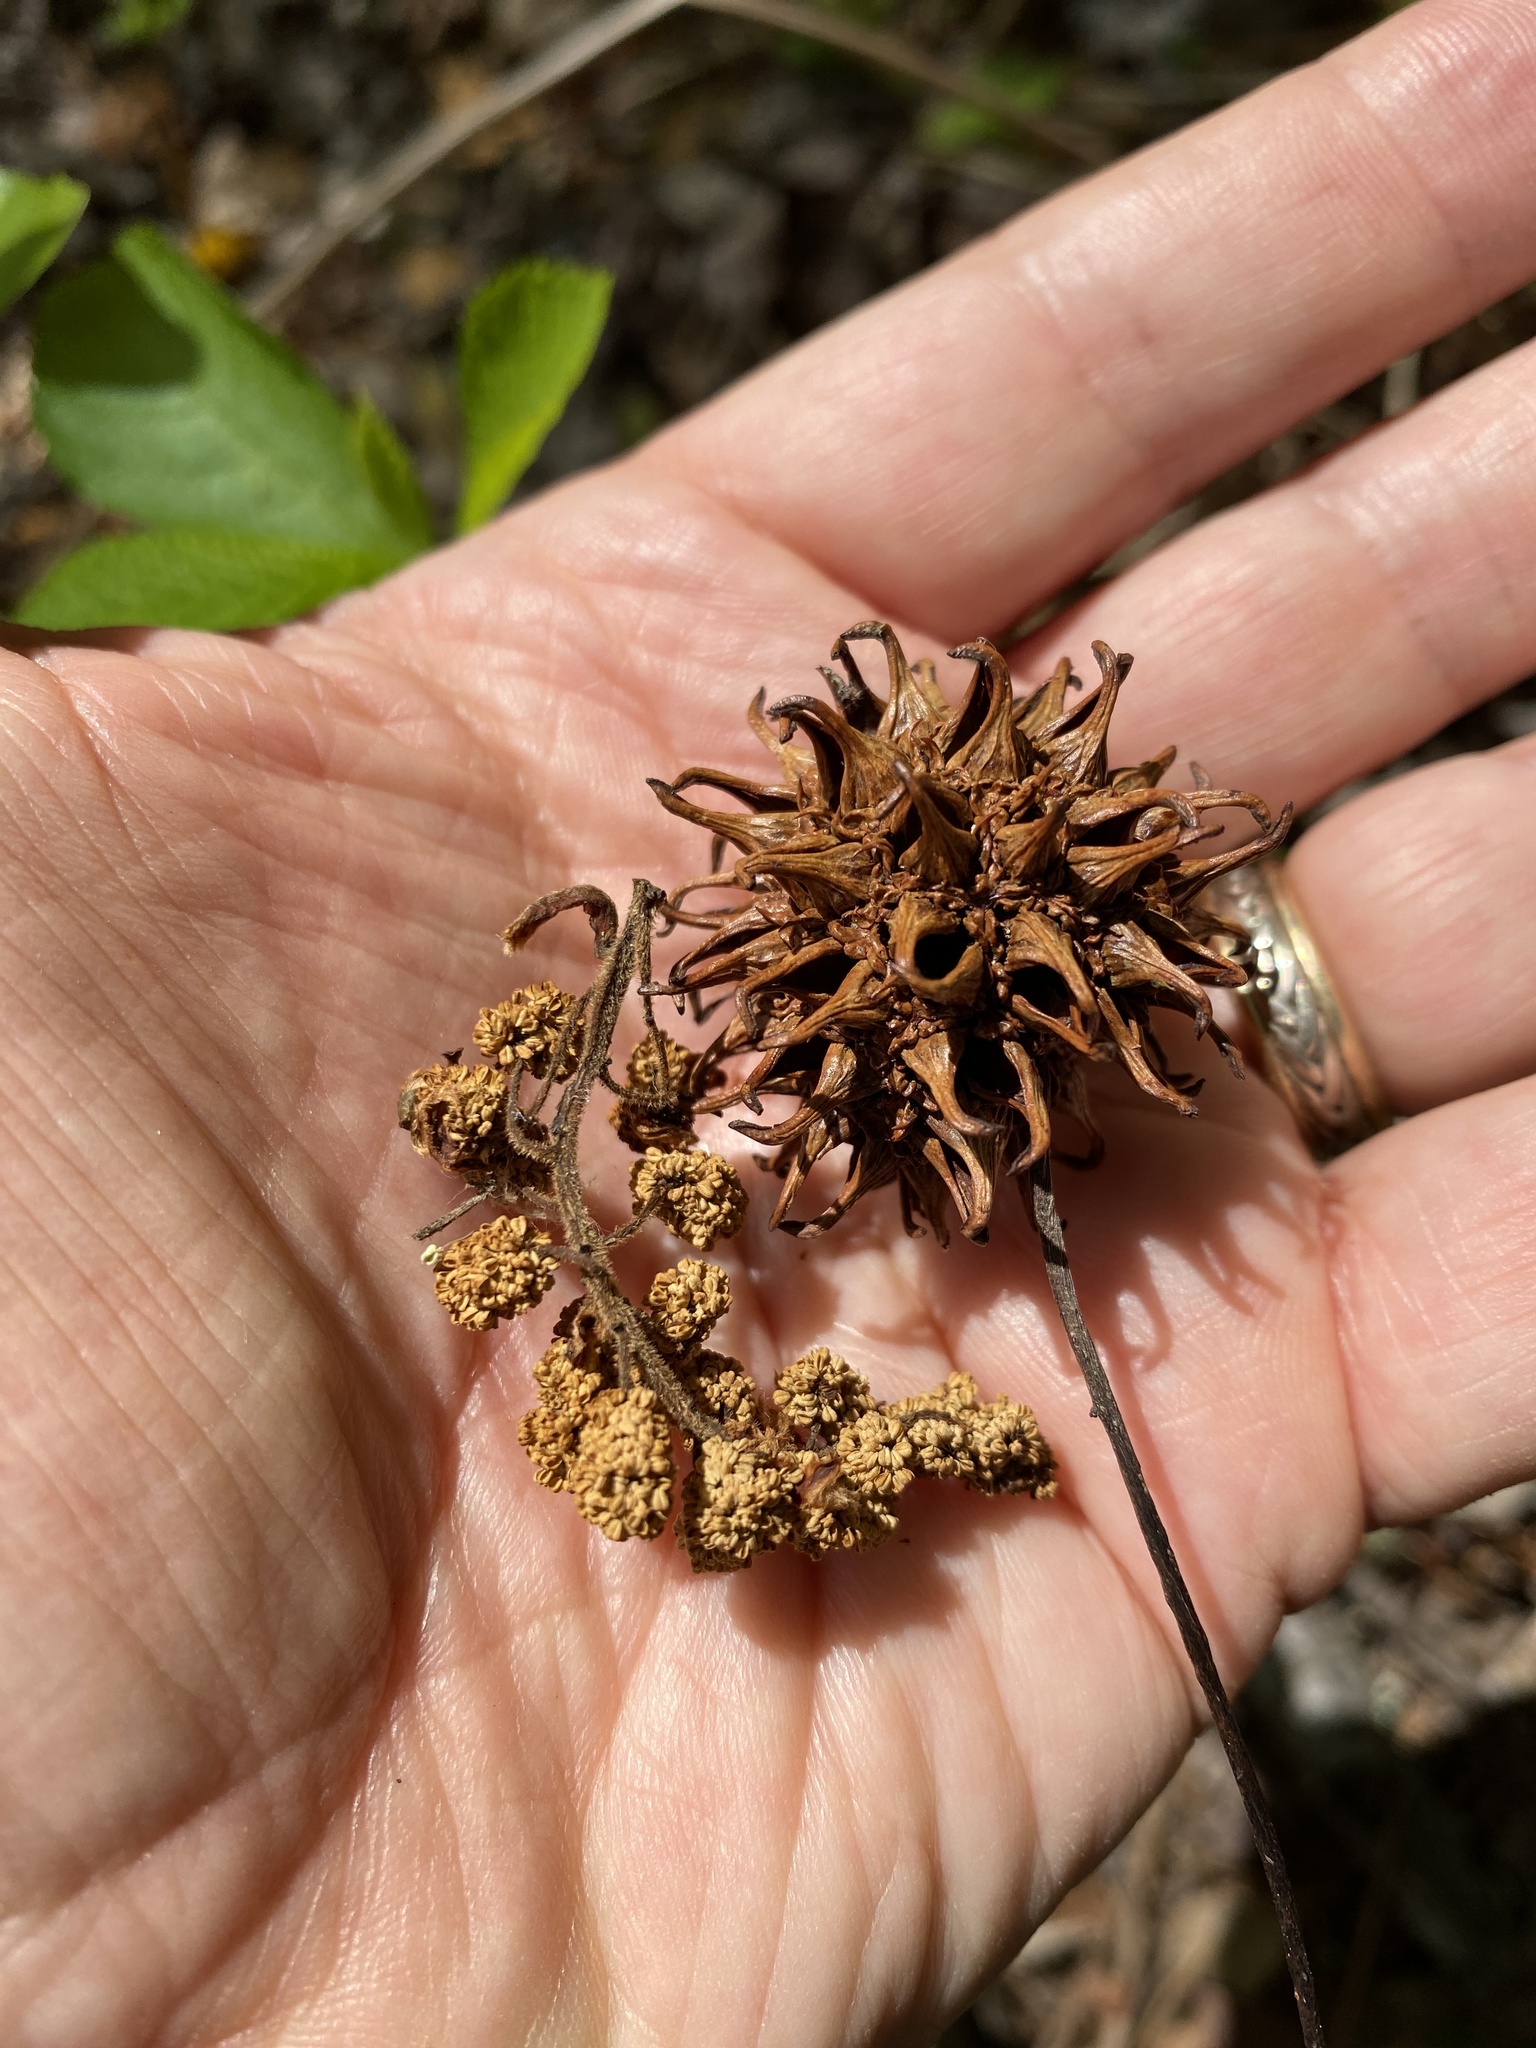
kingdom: Plantae
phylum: Tracheophyta
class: Magnoliopsida
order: Saxifragales
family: Altingiaceae
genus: Liquidambar
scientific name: Liquidambar styraciflua
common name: Sweet gum
